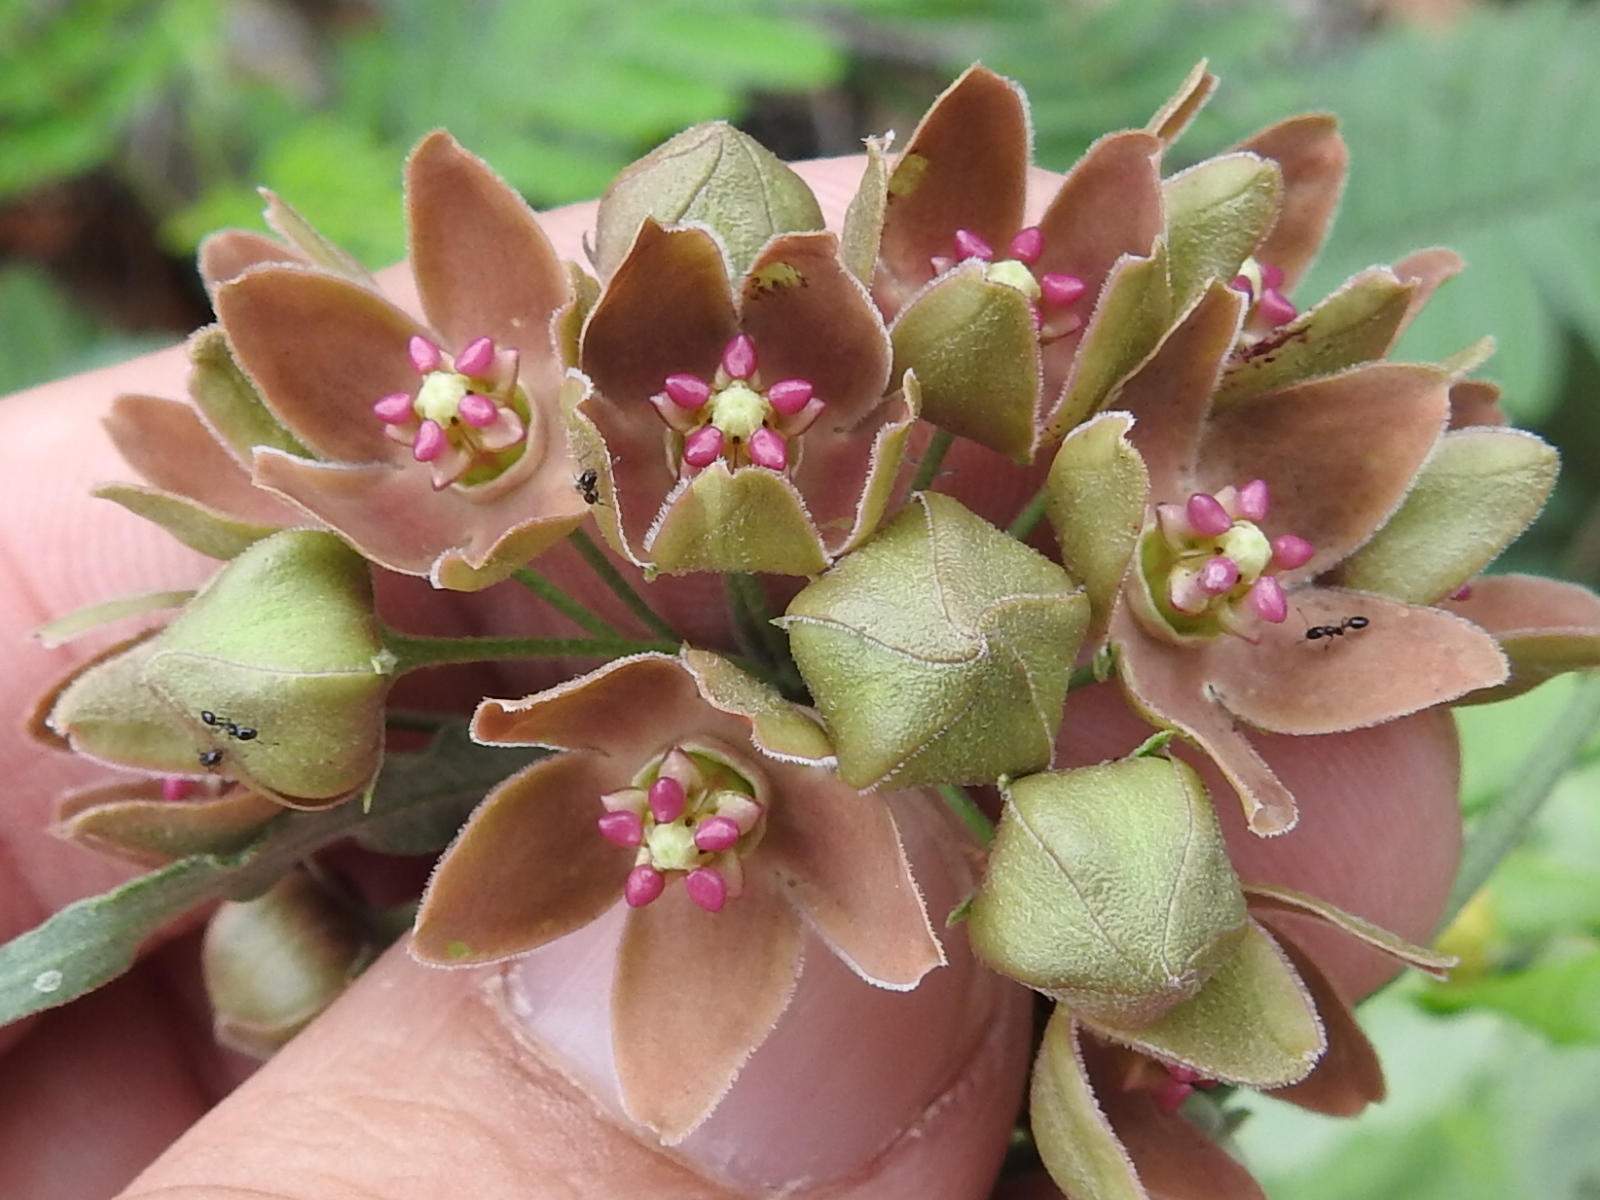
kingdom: Plantae
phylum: Tracheophyta
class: Magnoliopsida
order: Gentianales
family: Apocynaceae
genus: Funastrum
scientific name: Funastrum crispum
